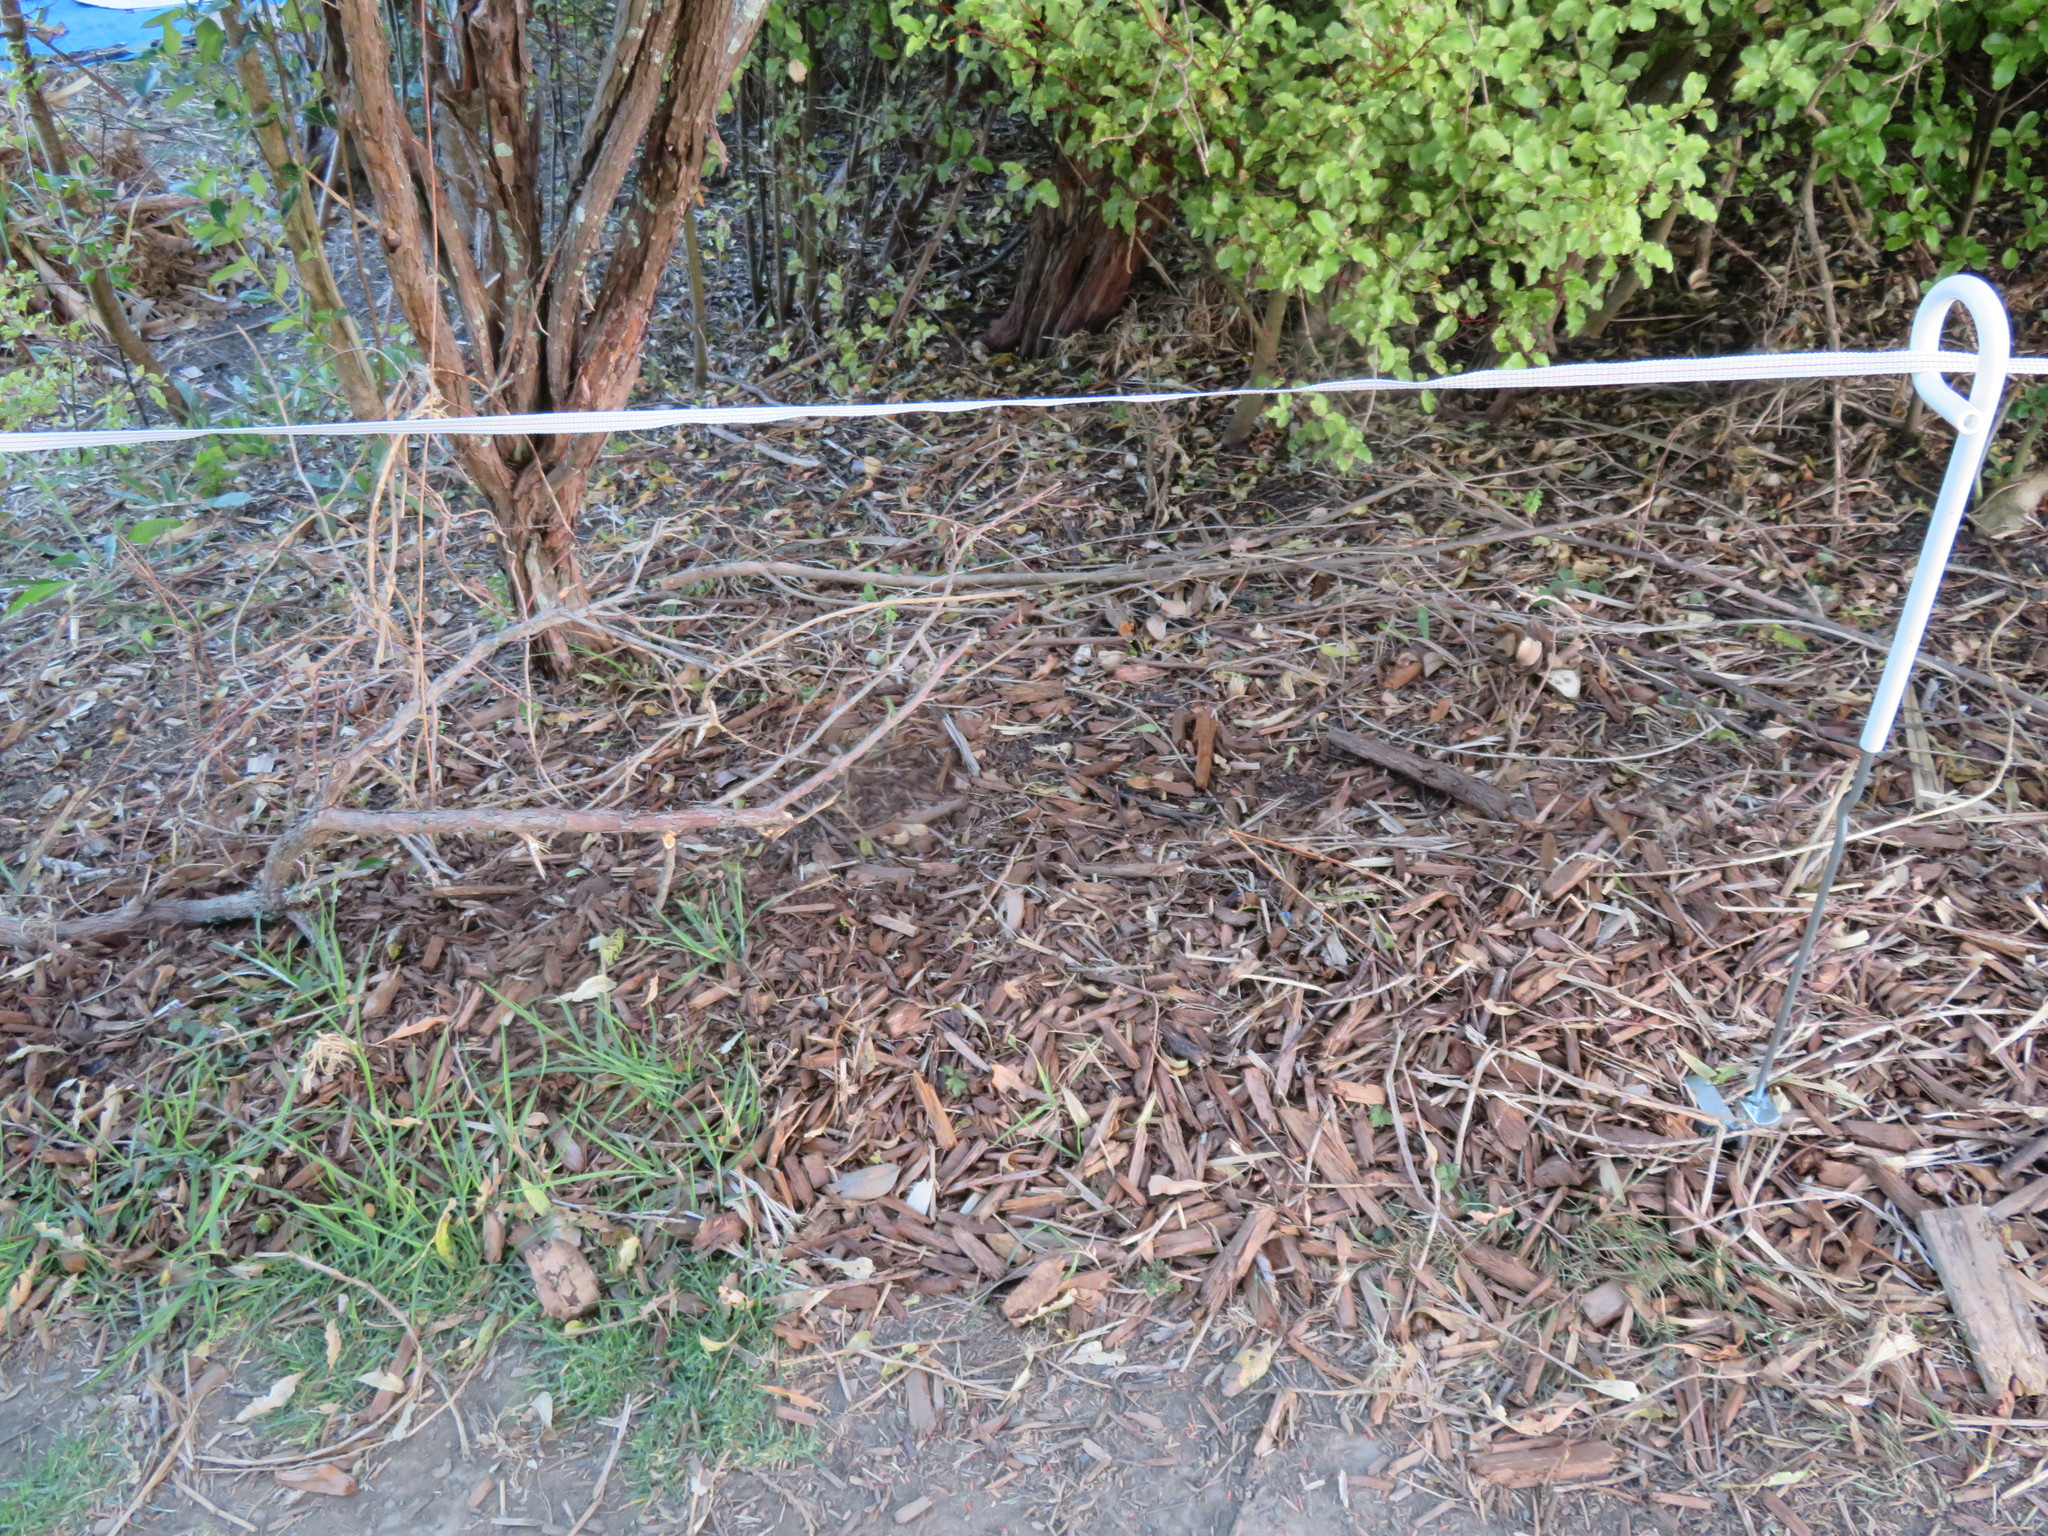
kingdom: Plantae
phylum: Tracheophyta
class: Liliopsida
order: Poales
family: Poaceae
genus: Cenchrus
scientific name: Cenchrus clandestinus
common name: Kikuyugrass
